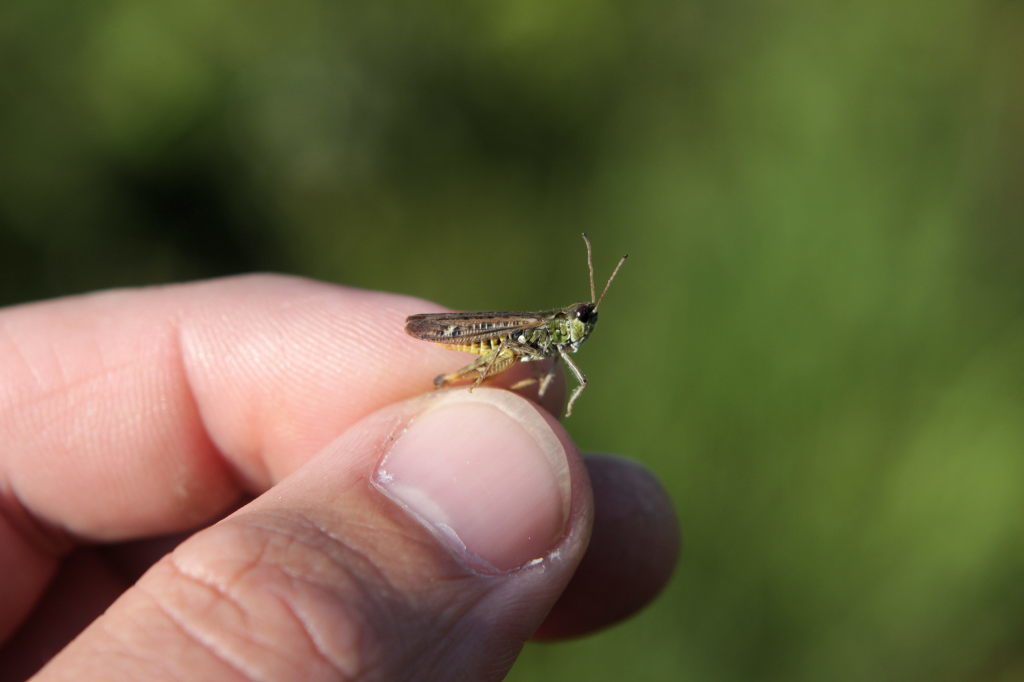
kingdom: Animalia
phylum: Arthropoda
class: Insecta
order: Orthoptera
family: Acrididae
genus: Myrmeleotettix
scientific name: Myrmeleotettix maculatus
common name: Mottled grasshopper
